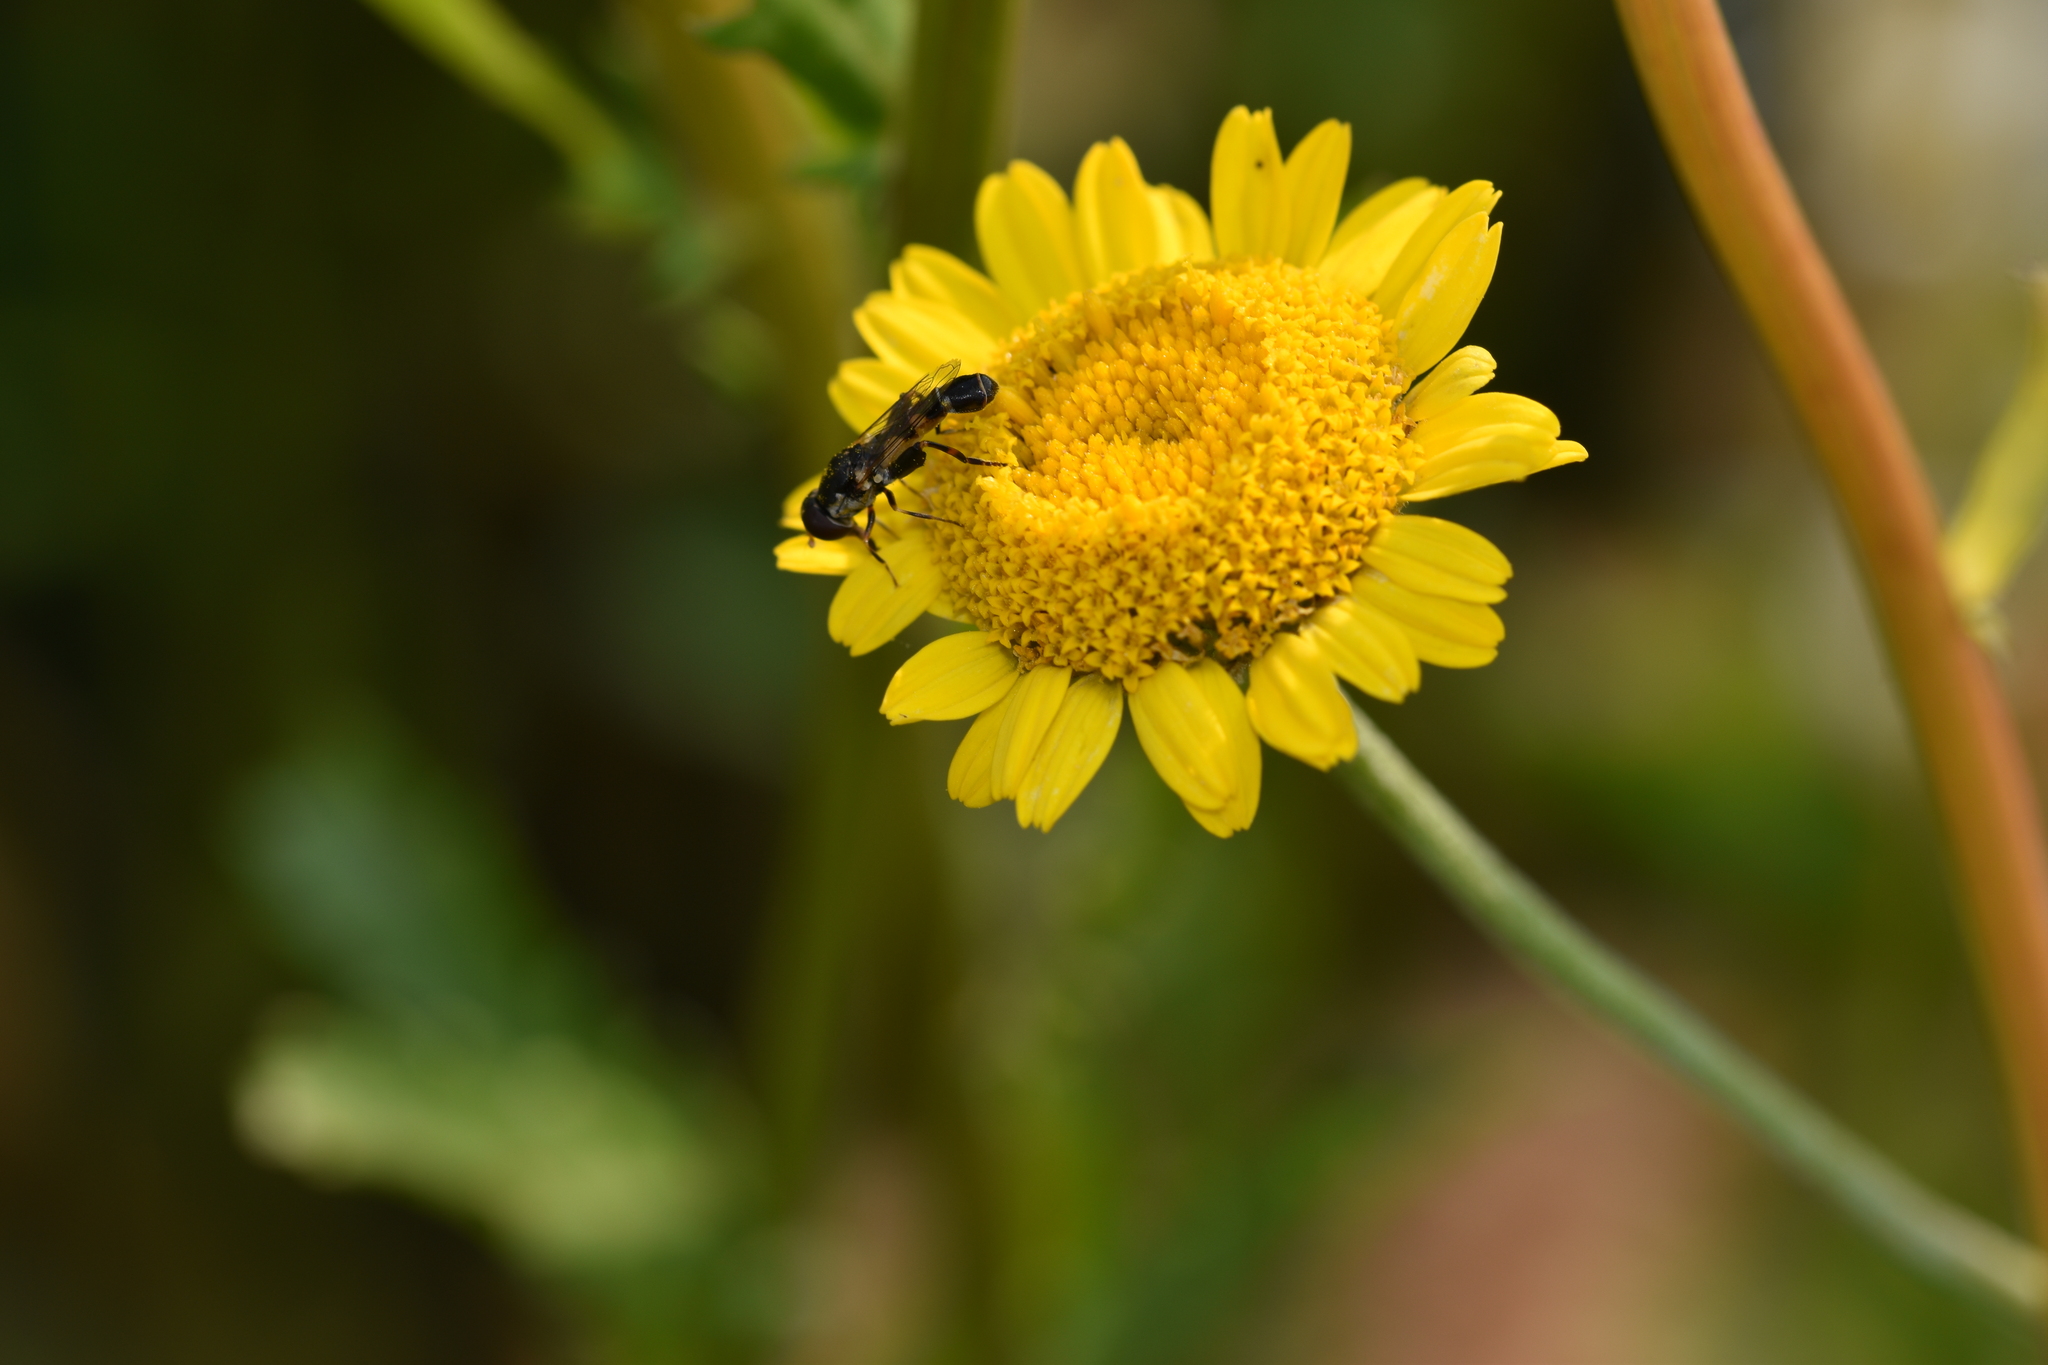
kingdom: Animalia
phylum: Arthropoda
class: Insecta
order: Diptera
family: Syrphidae
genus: Syritta
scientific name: Syritta pipiens
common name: Hover fly
